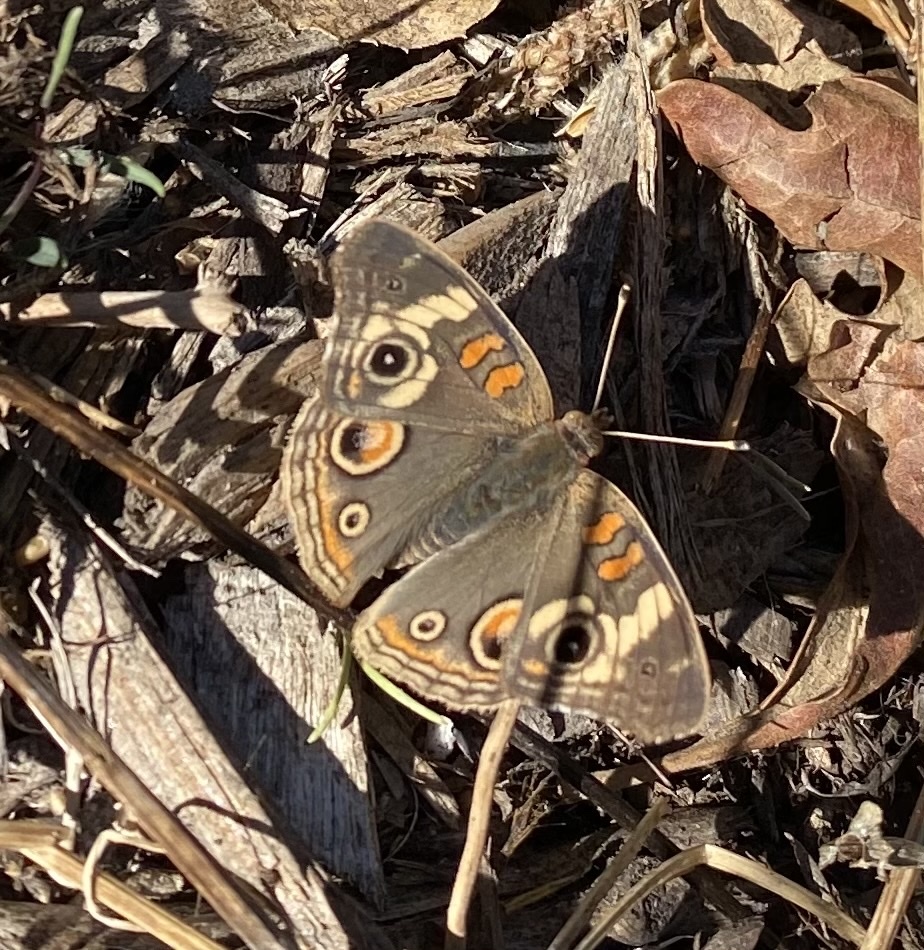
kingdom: Animalia
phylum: Arthropoda
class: Insecta
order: Lepidoptera
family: Nymphalidae
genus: Junonia
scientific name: Junonia grisea
